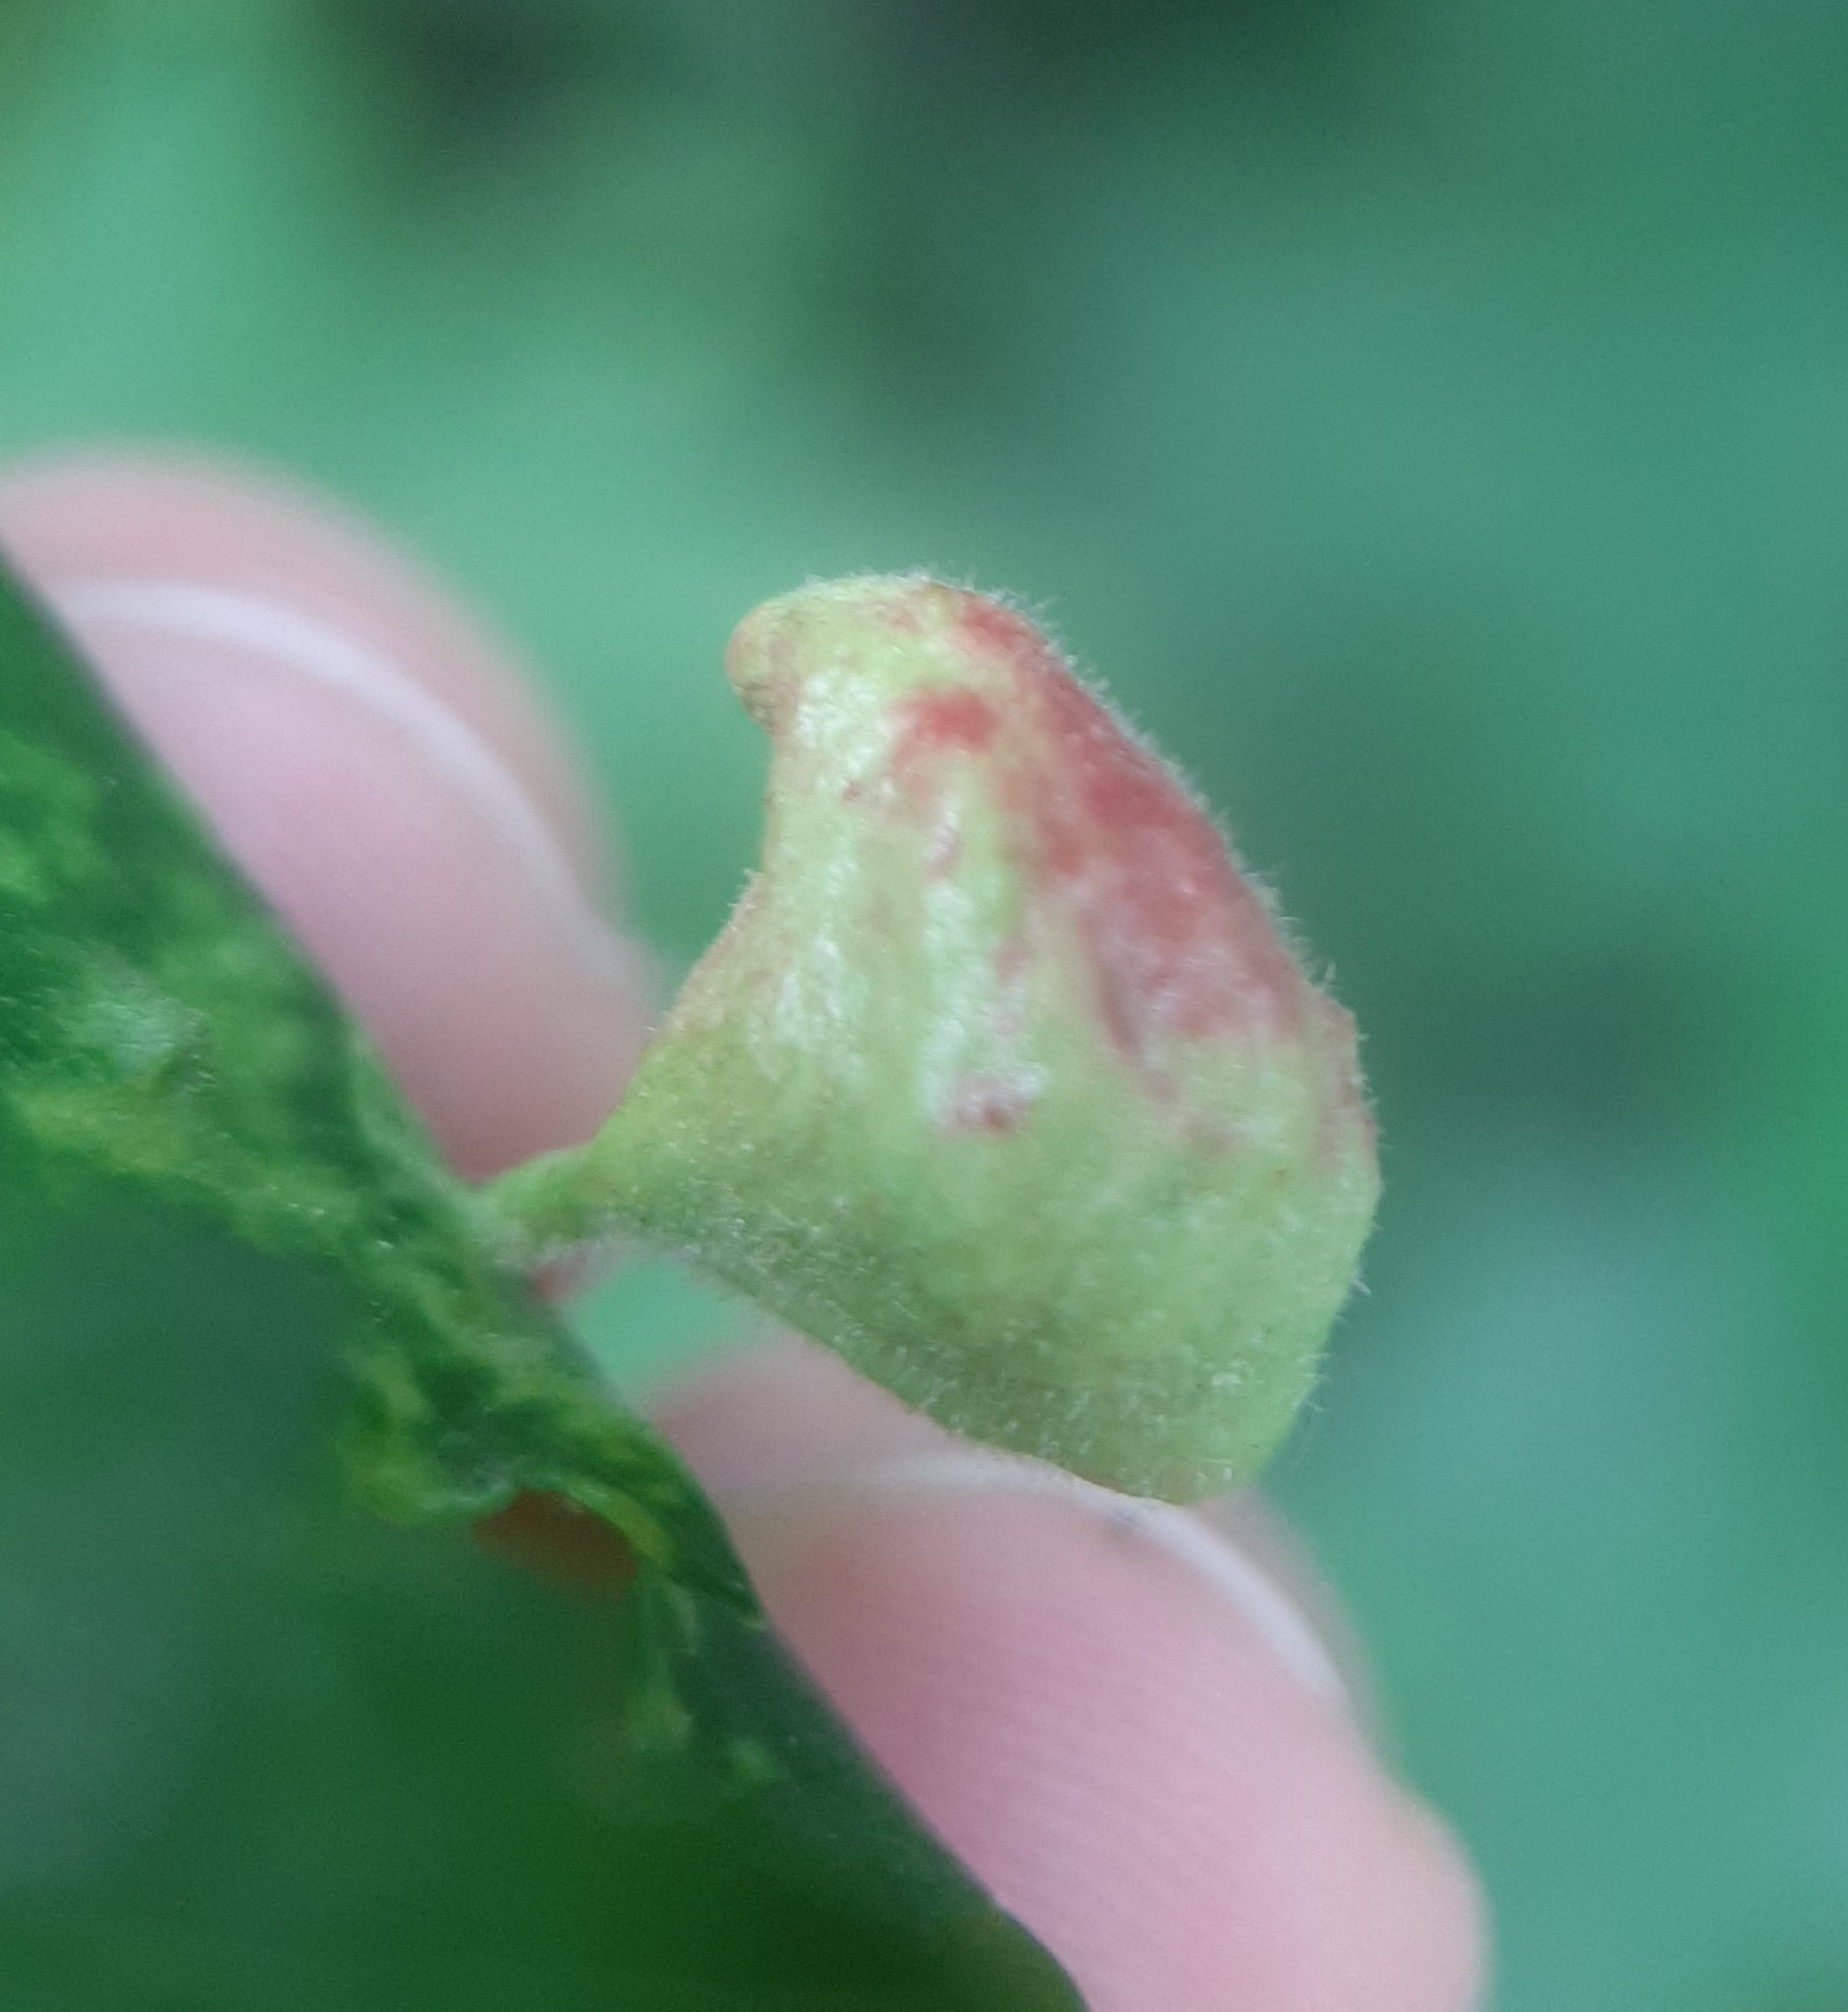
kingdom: Animalia
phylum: Arthropoda
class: Insecta
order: Hemiptera
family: Aphididae
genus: Tetraneura
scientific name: Tetraneura nigriabdominalis
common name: Aphid
